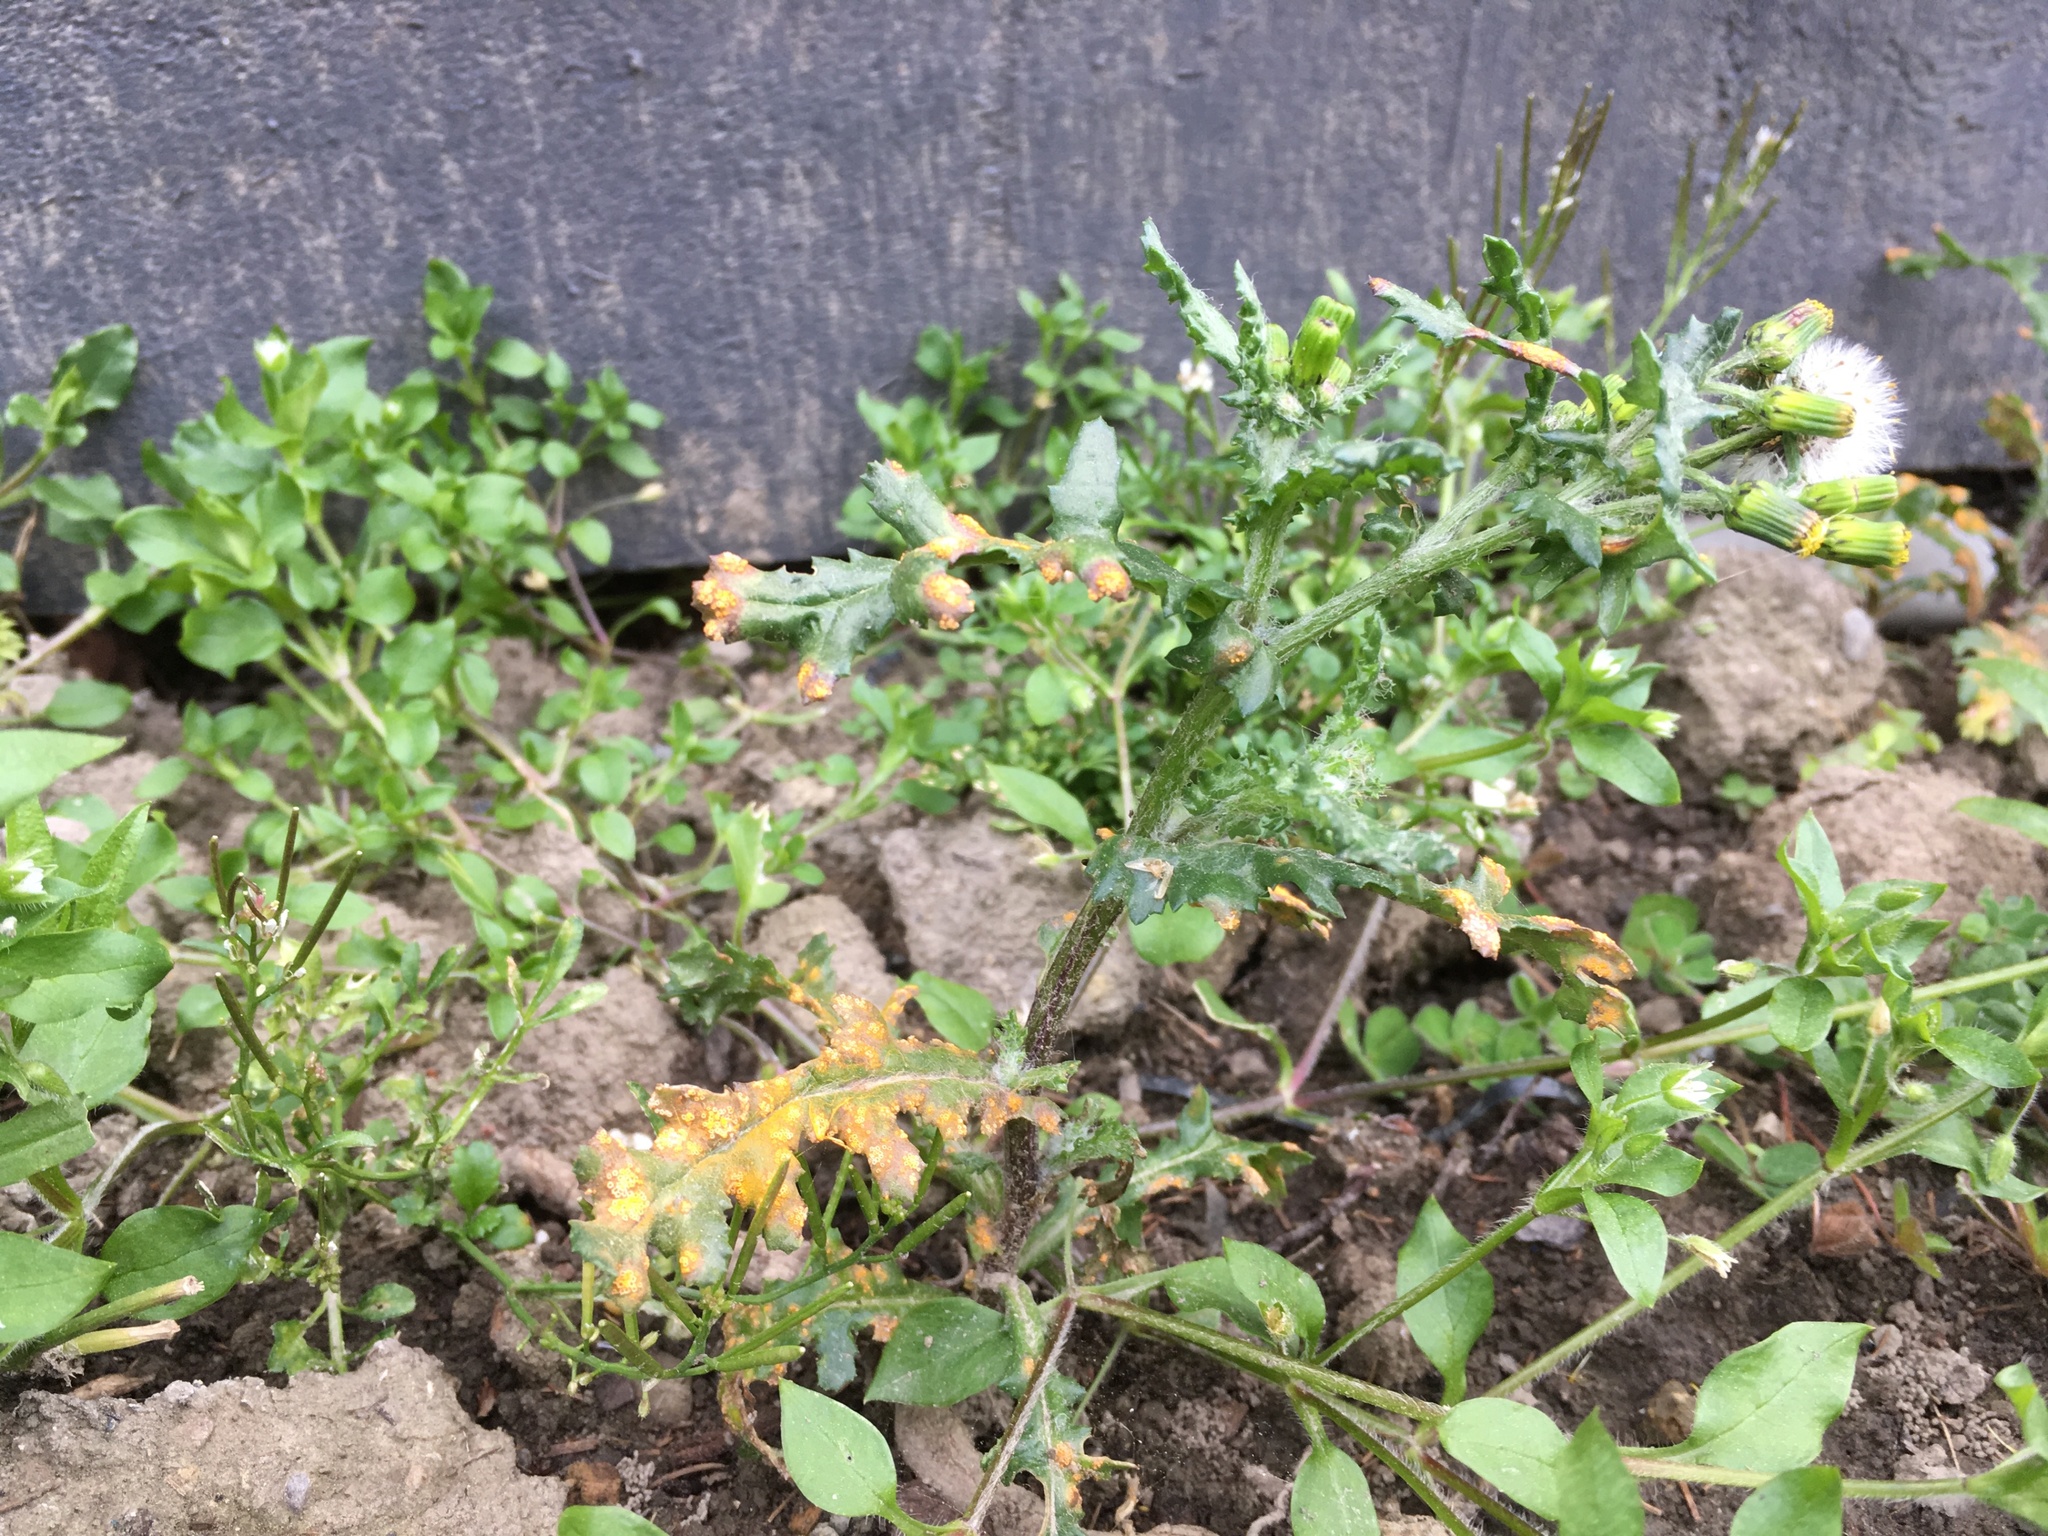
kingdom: Fungi
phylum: Basidiomycota
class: Pucciniomycetes
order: Pucciniales
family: Pucciniaceae
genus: Puccinia
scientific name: Puccinia lagenophorae
